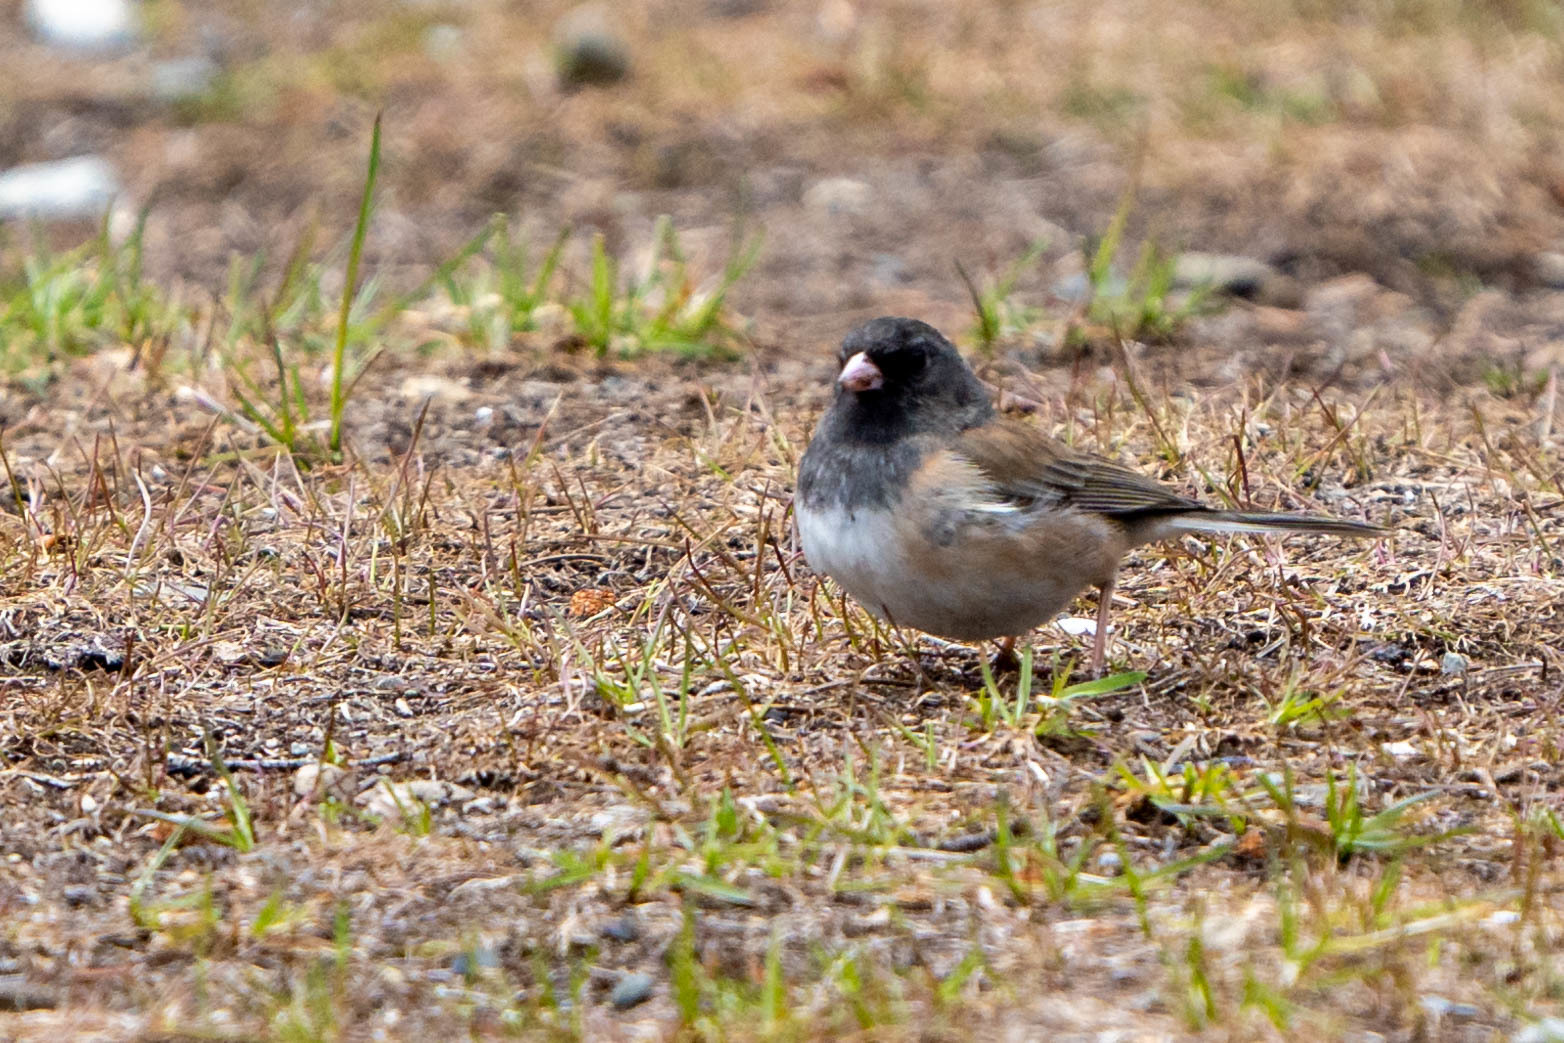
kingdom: Animalia
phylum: Chordata
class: Aves
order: Passeriformes
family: Passerellidae
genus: Junco
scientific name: Junco hyemalis
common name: Dark-eyed junco
